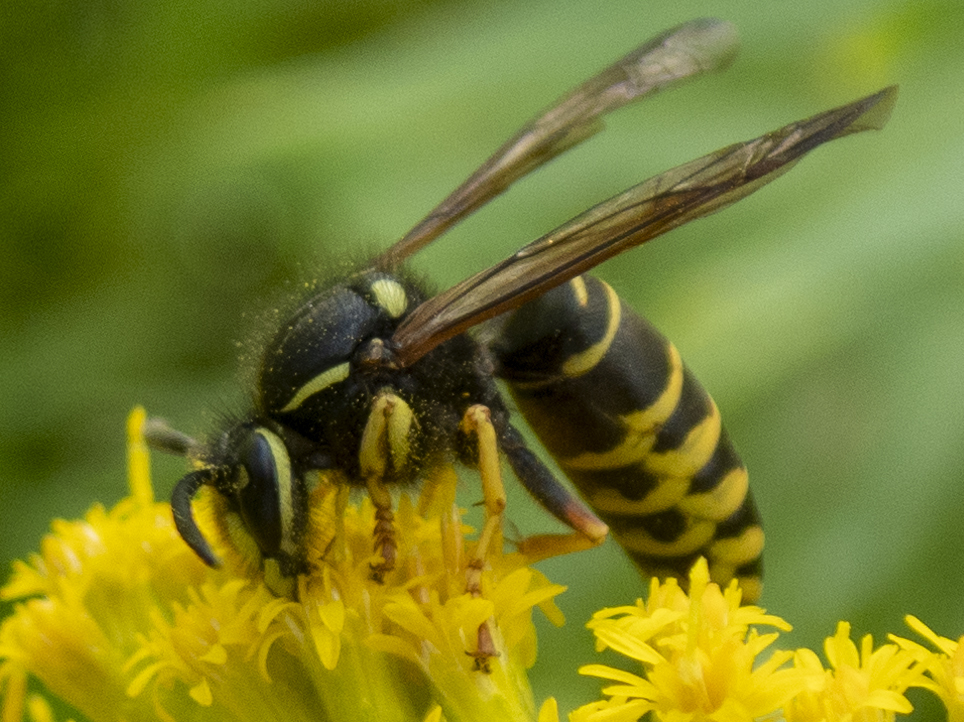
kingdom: Animalia
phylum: Arthropoda
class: Insecta
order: Hymenoptera
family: Vespidae
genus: Vespula
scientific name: Vespula vidua
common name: Widow yellowjacket
